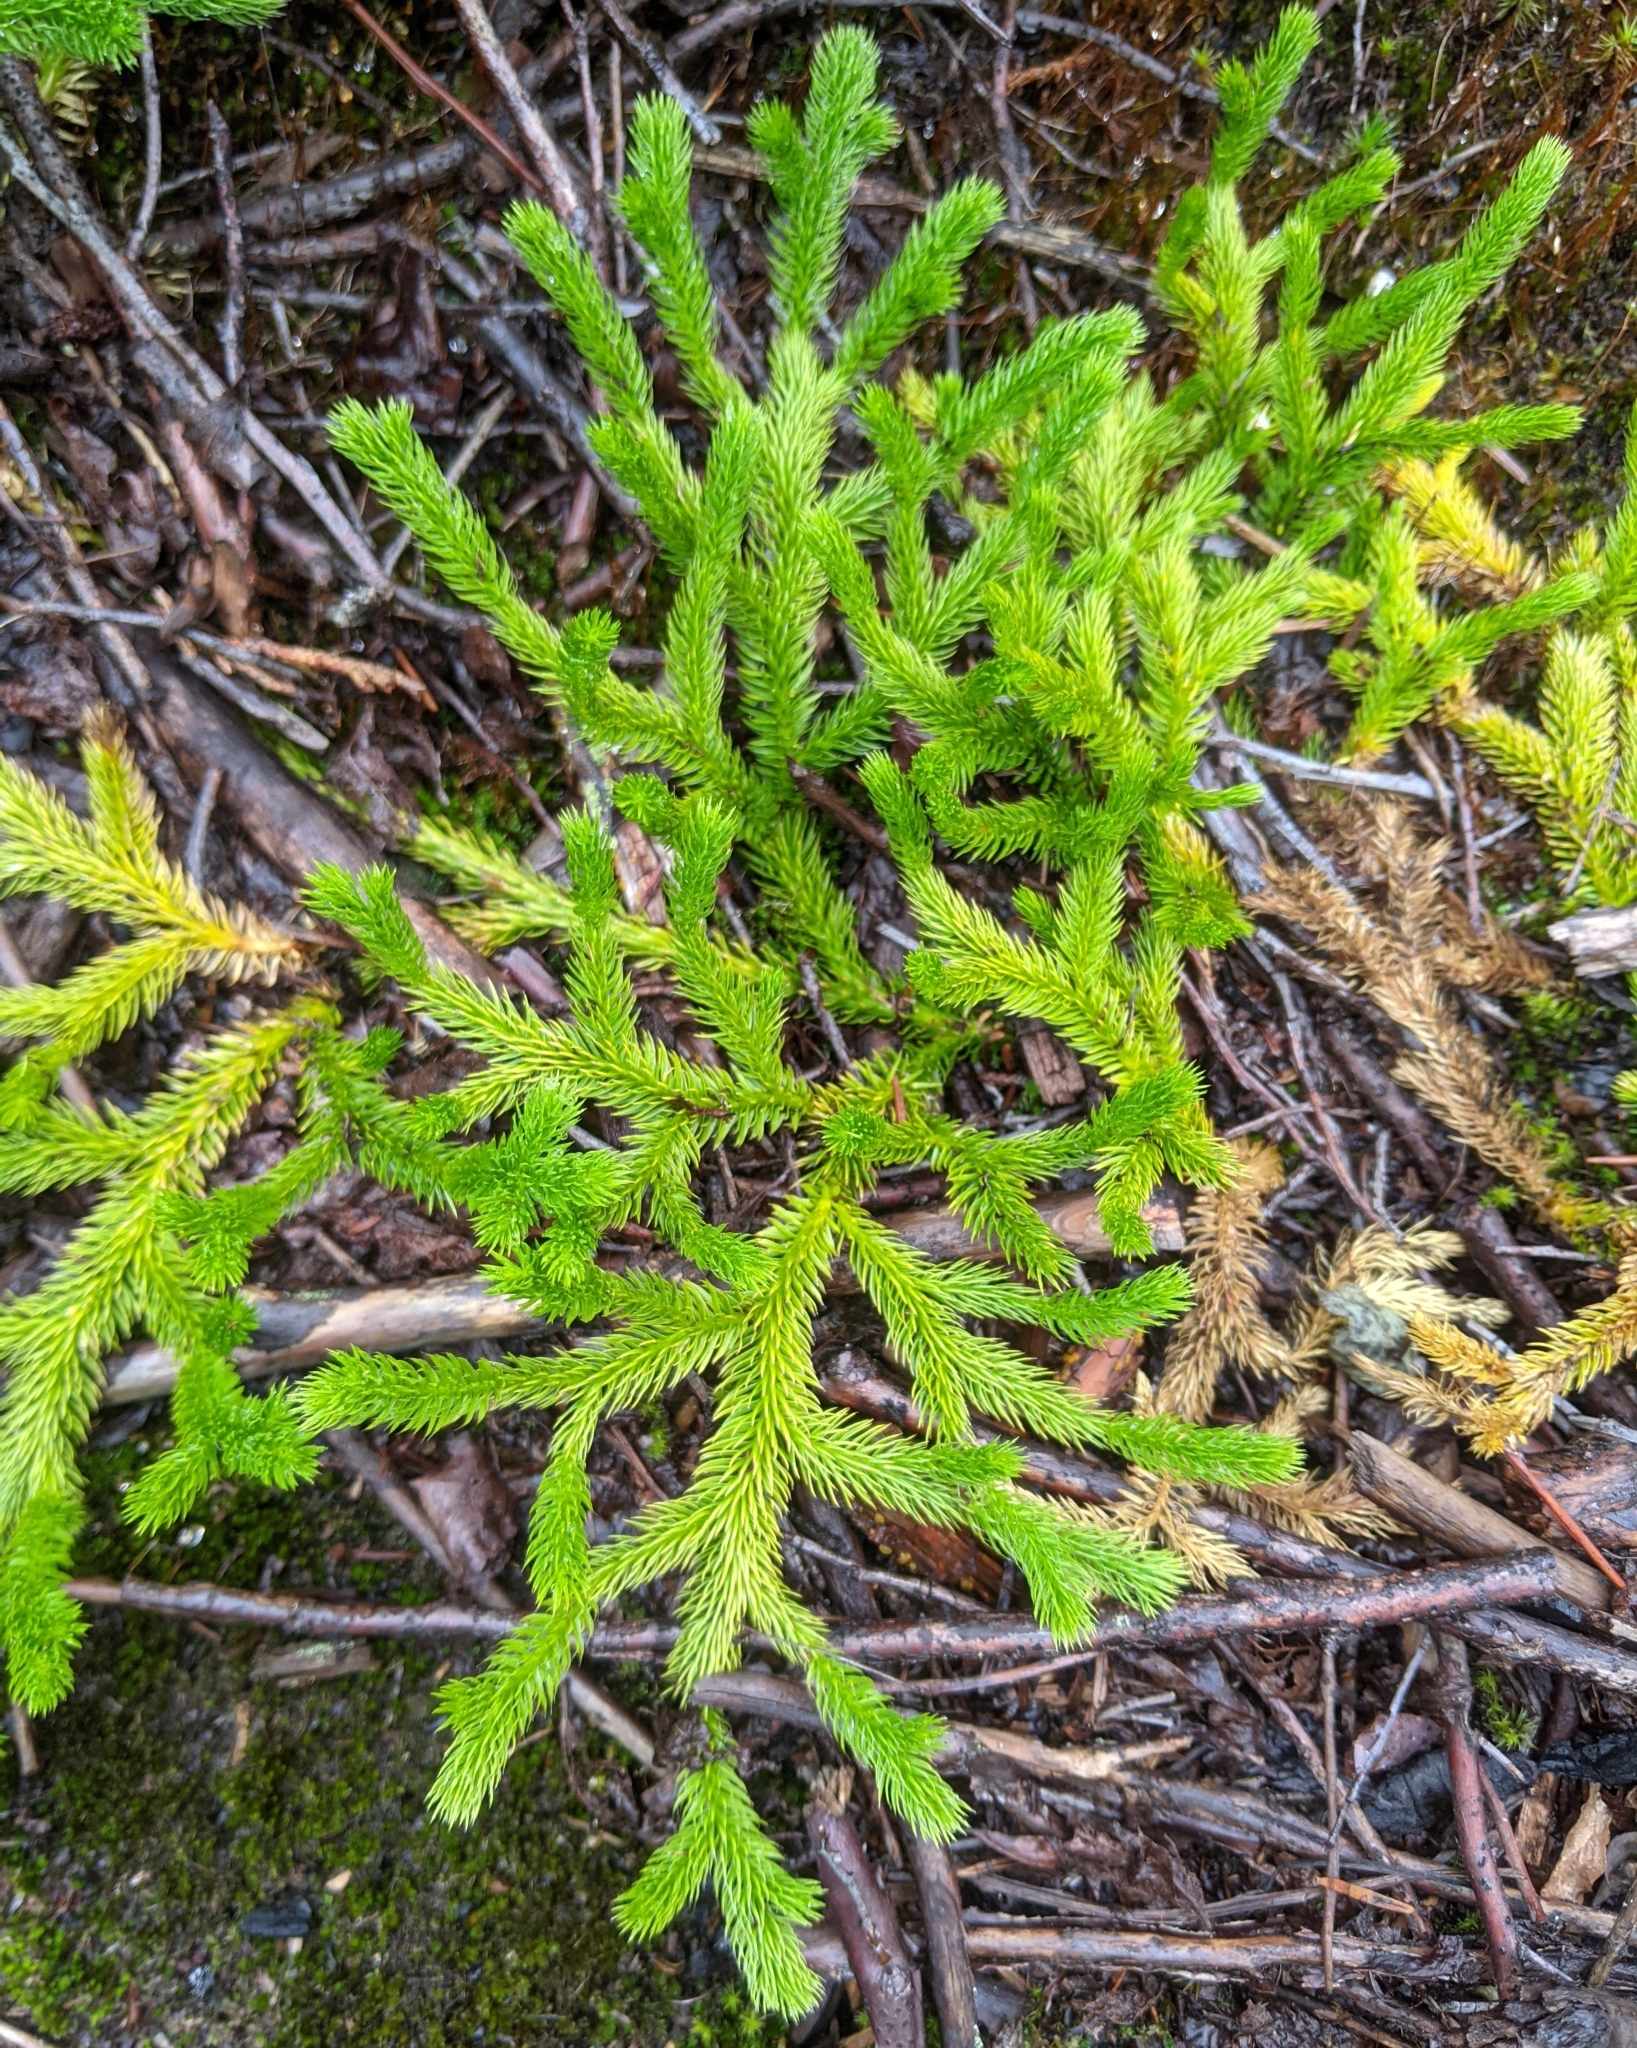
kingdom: Plantae
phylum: Tracheophyta
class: Lycopodiopsida
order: Lycopodiales
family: Lycopodiaceae
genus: Lycopodium
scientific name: Lycopodium clavatum
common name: Stag's-horn clubmoss
